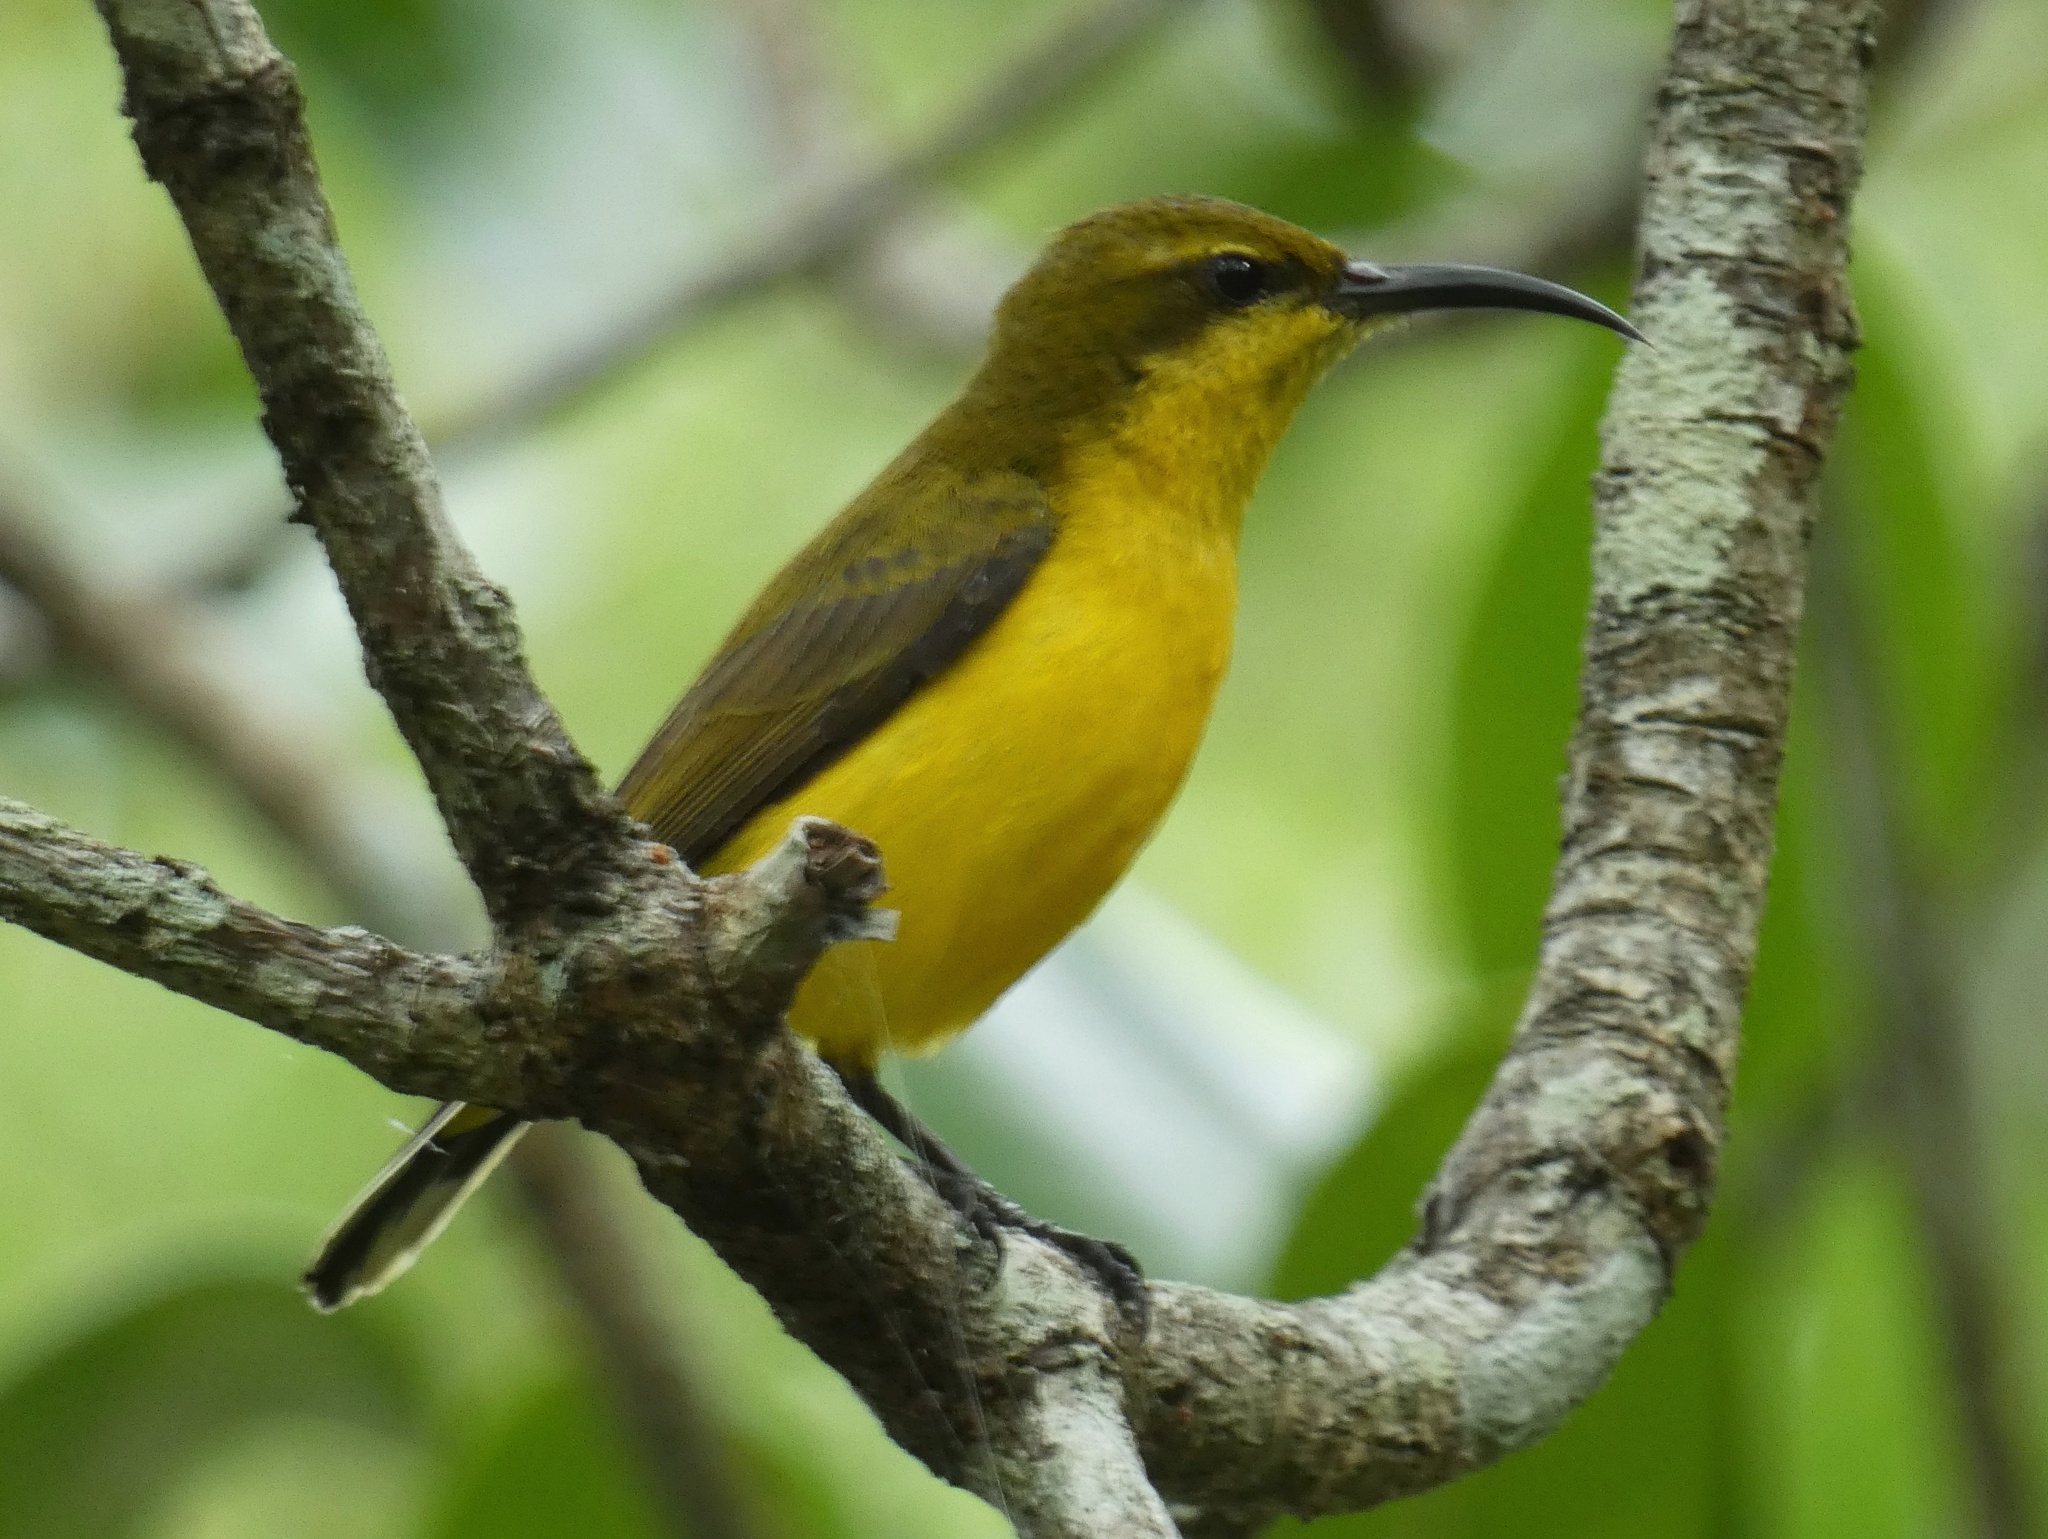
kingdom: Animalia
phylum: Chordata
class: Aves
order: Passeriformes
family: Nectariniidae
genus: Cinnyris
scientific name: Cinnyris
